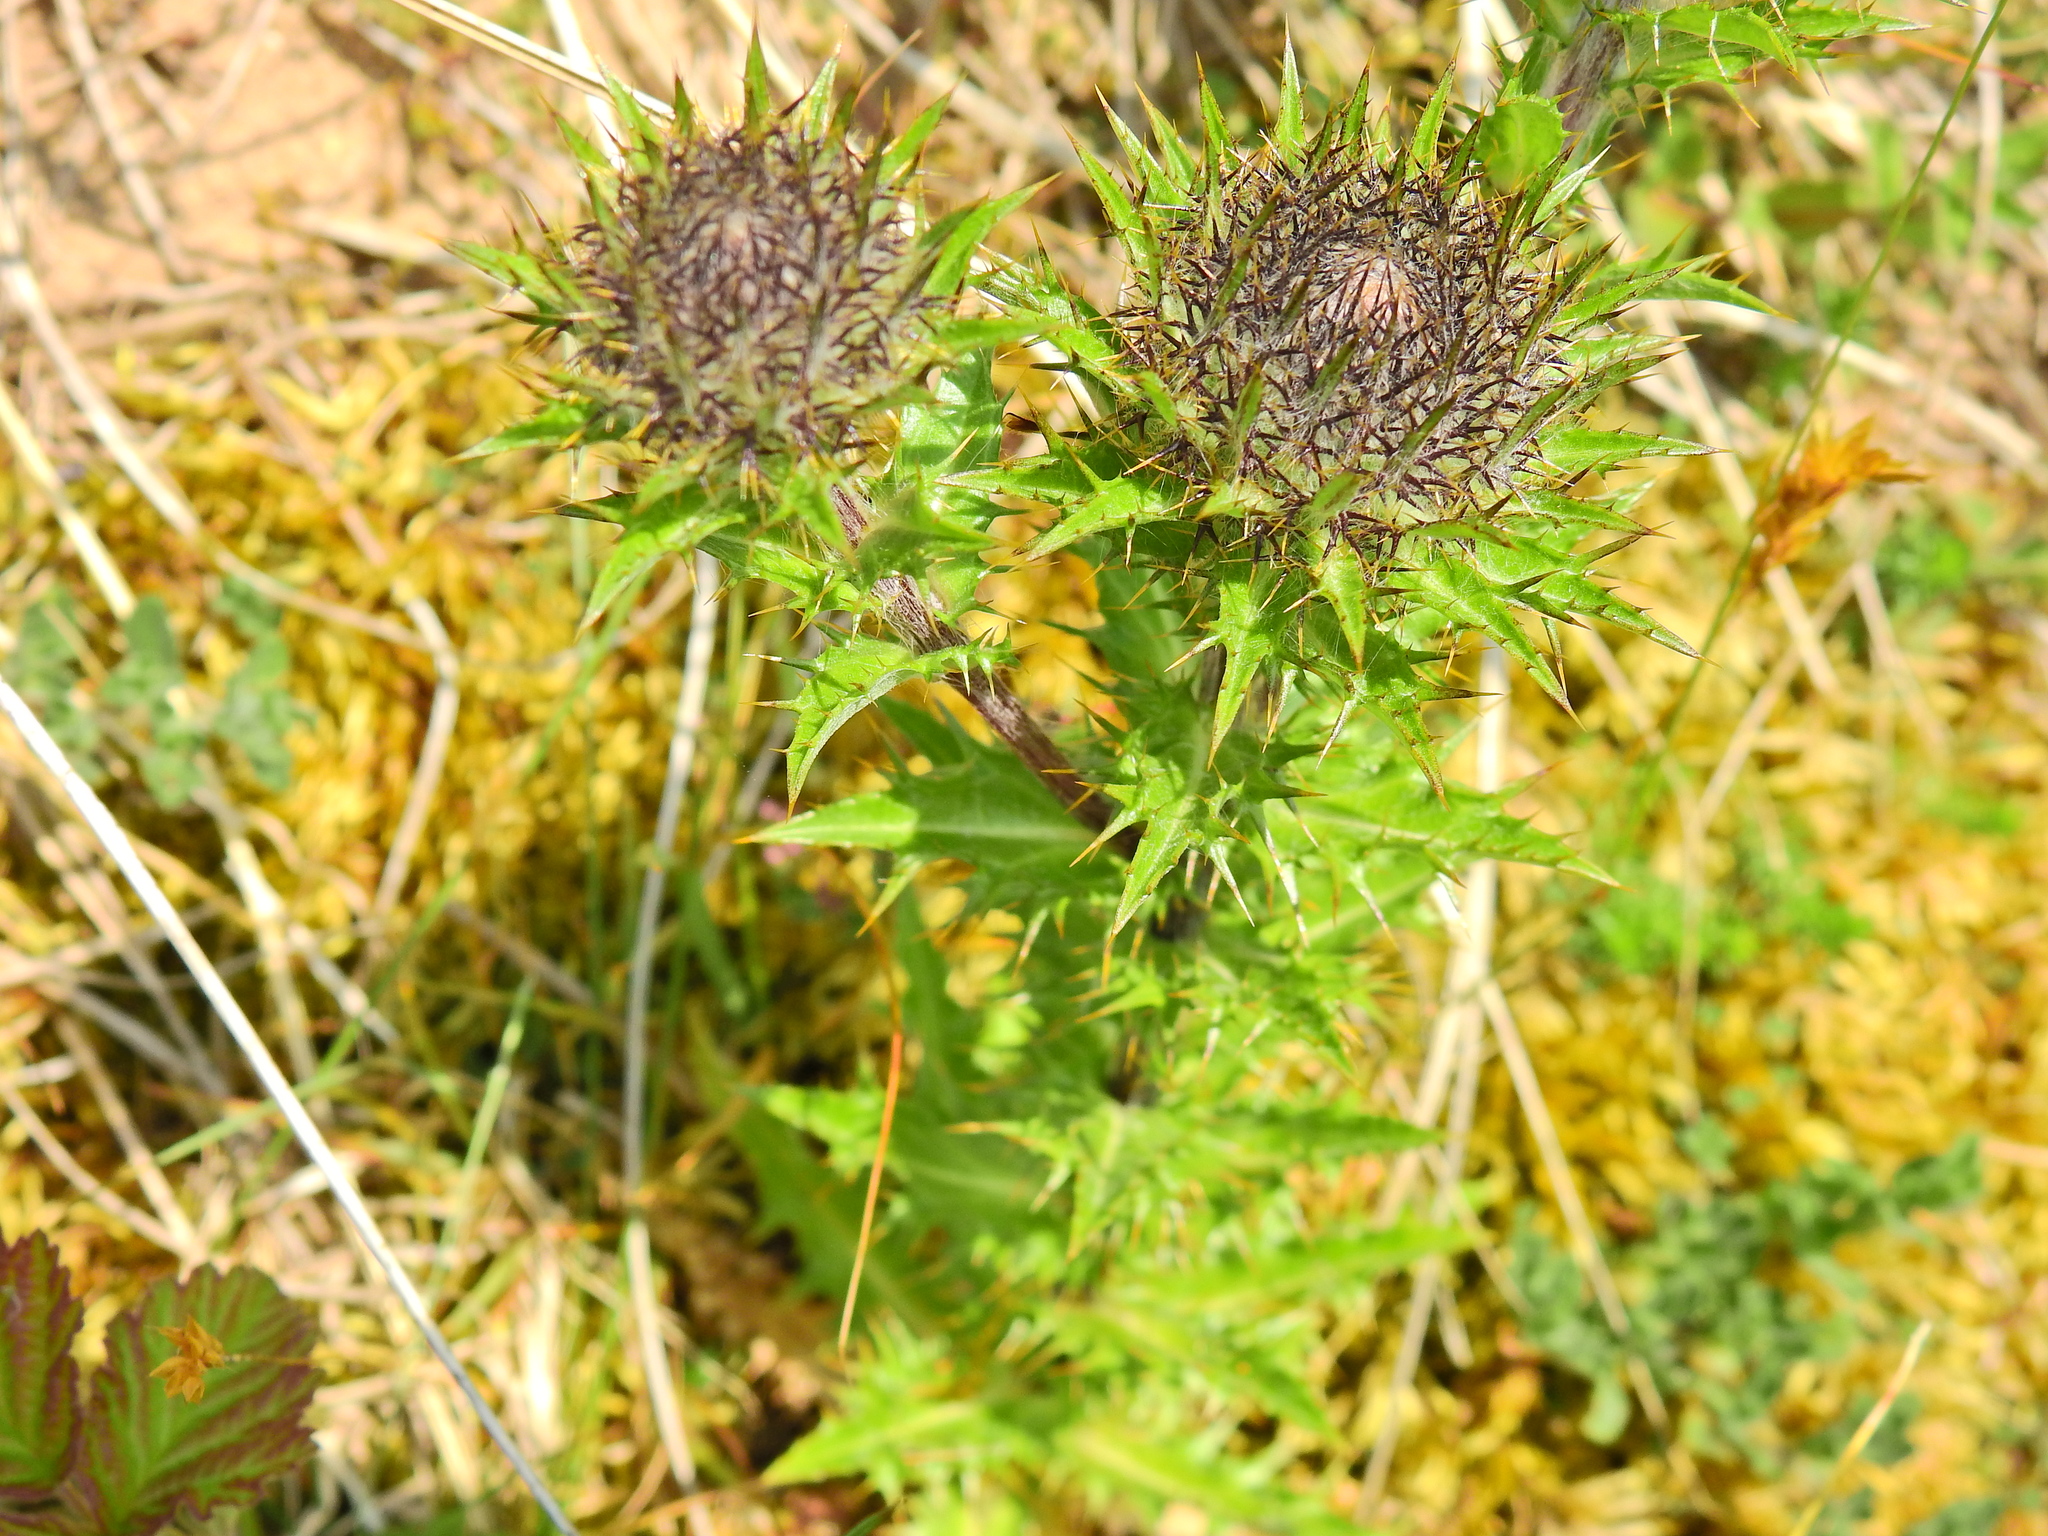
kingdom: Plantae
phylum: Tracheophyta
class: Magnoliopsida
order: Asterales
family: Asteraceae
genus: Carlina
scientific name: Carlina vulgaris
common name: Carline thistle
